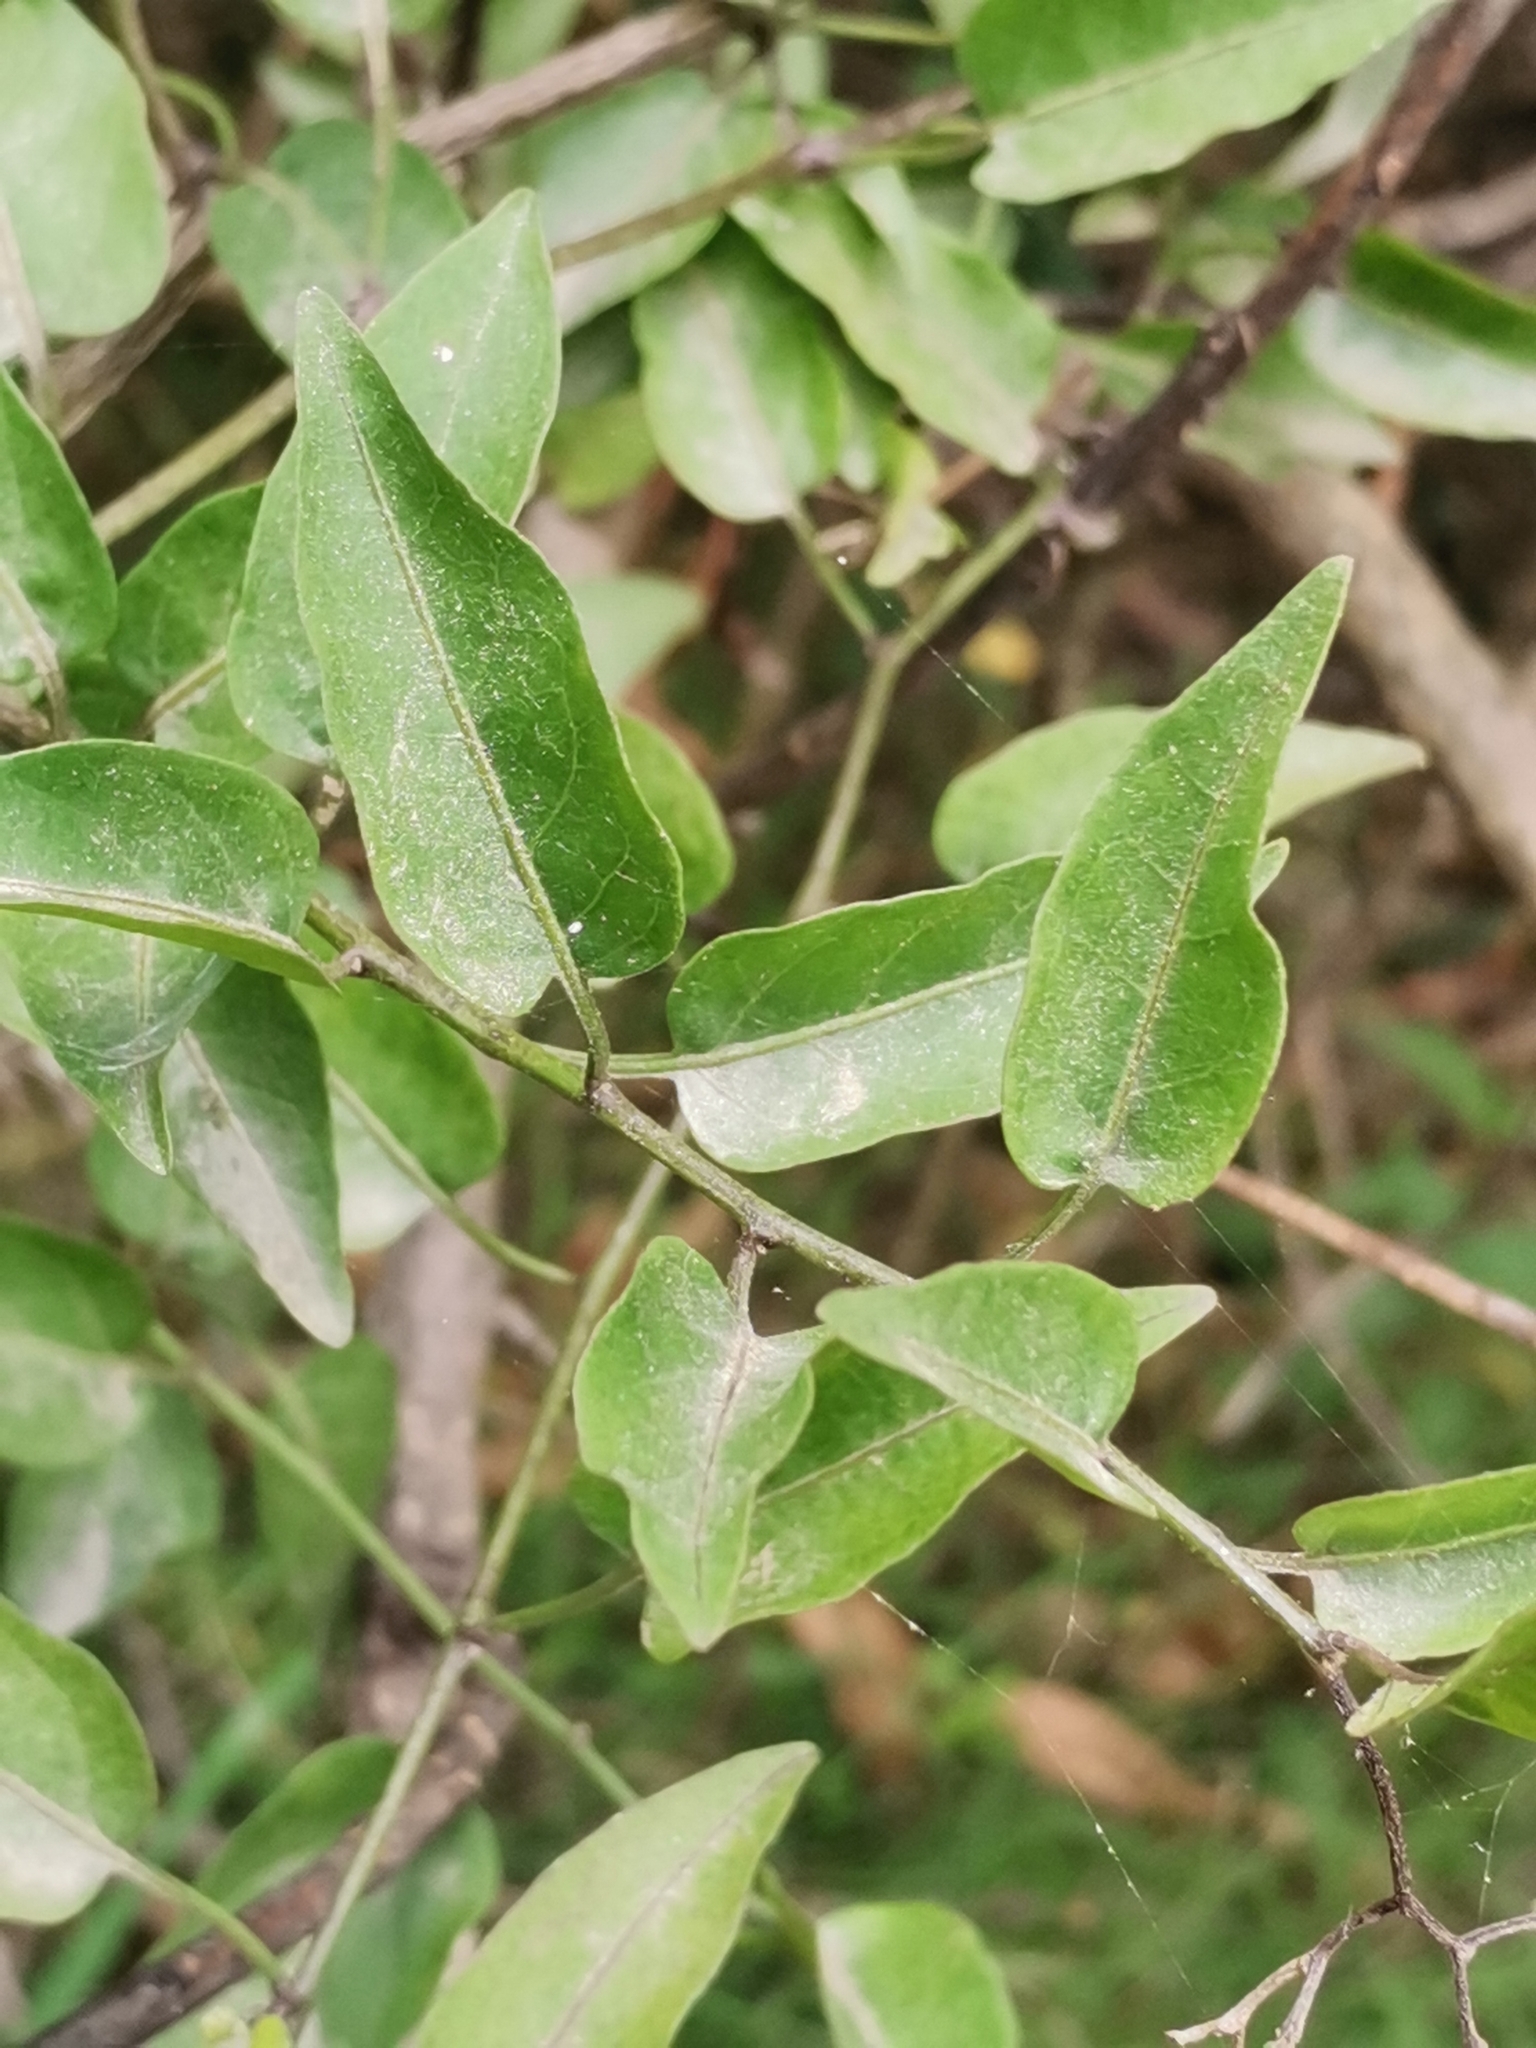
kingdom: Plantae
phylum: Tracheophyta
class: Magnoliopsida
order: Solanales
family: Solanaceae
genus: Solanum
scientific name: Solanum laxum
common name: Nightshade
